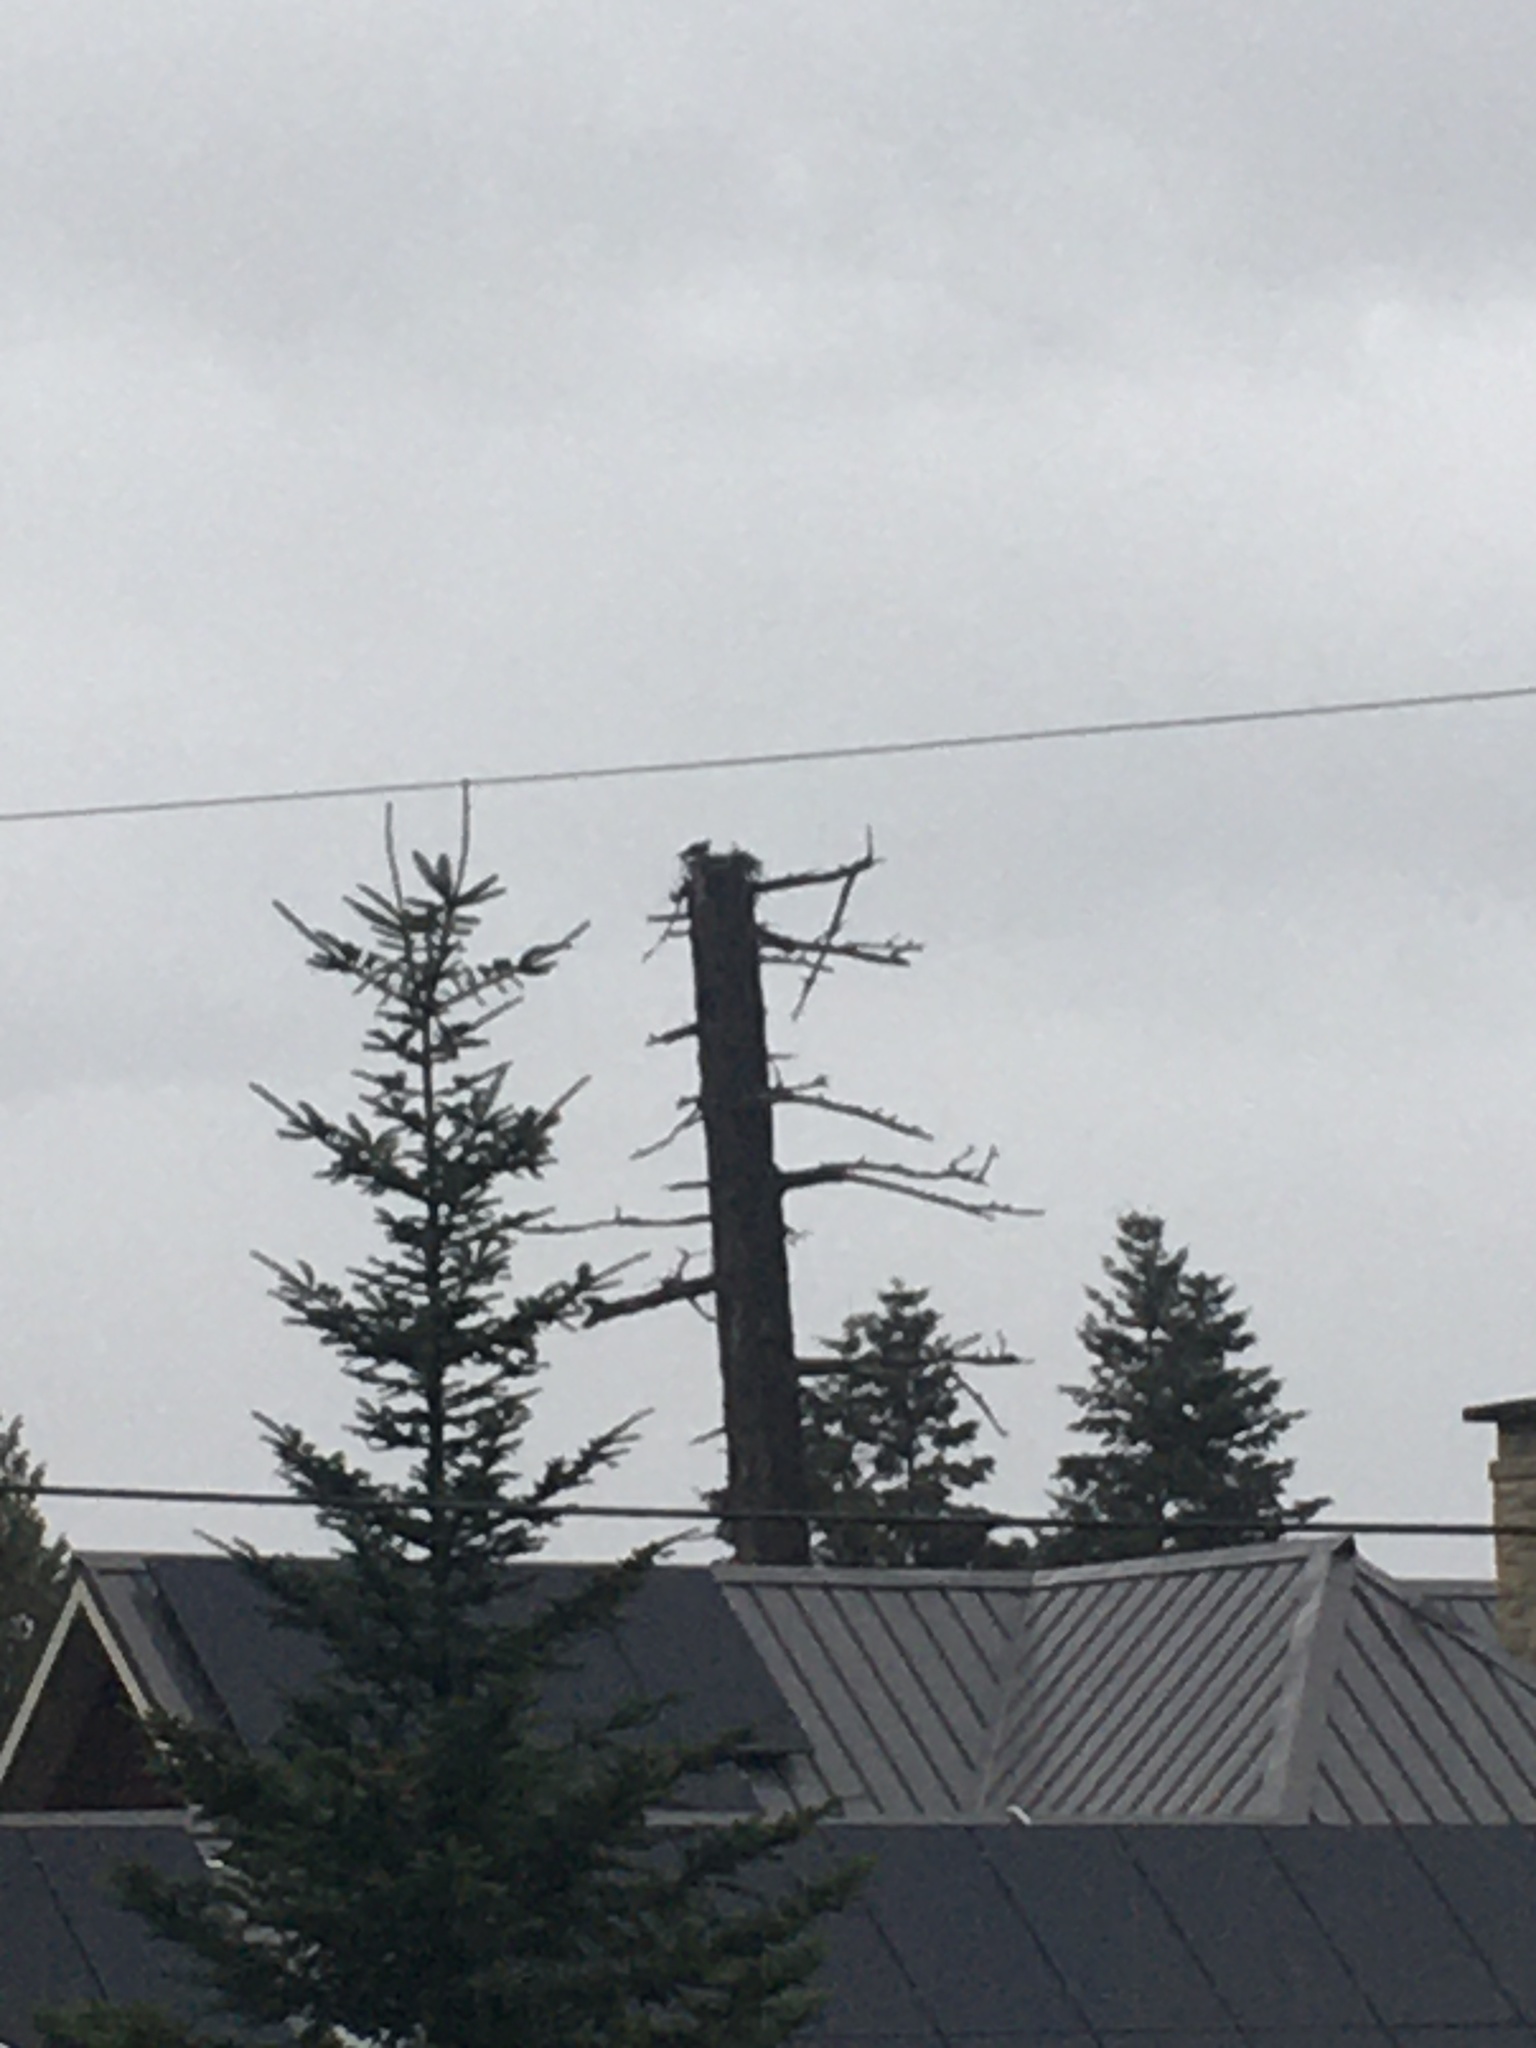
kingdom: Animalia
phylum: Chordata
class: Aves
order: Accipitriformes
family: Pandionidae
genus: Pandion
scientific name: Pandion haliaetus
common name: Osprey
